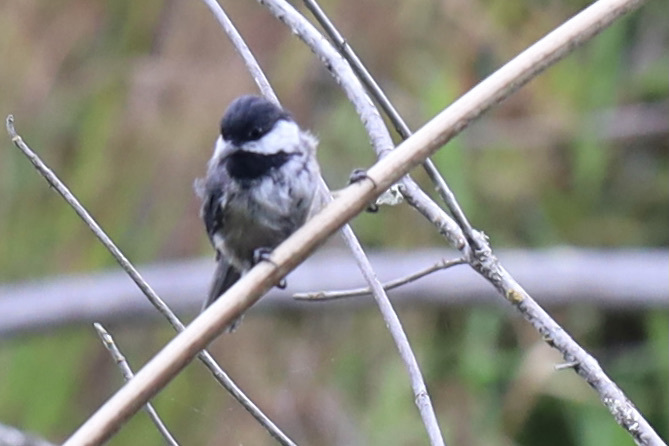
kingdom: Animalia
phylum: Chordata
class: Aves
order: Passeriformes
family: Paridae
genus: Poecile
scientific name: Poecile atricapillus
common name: Black-capped chickadee
